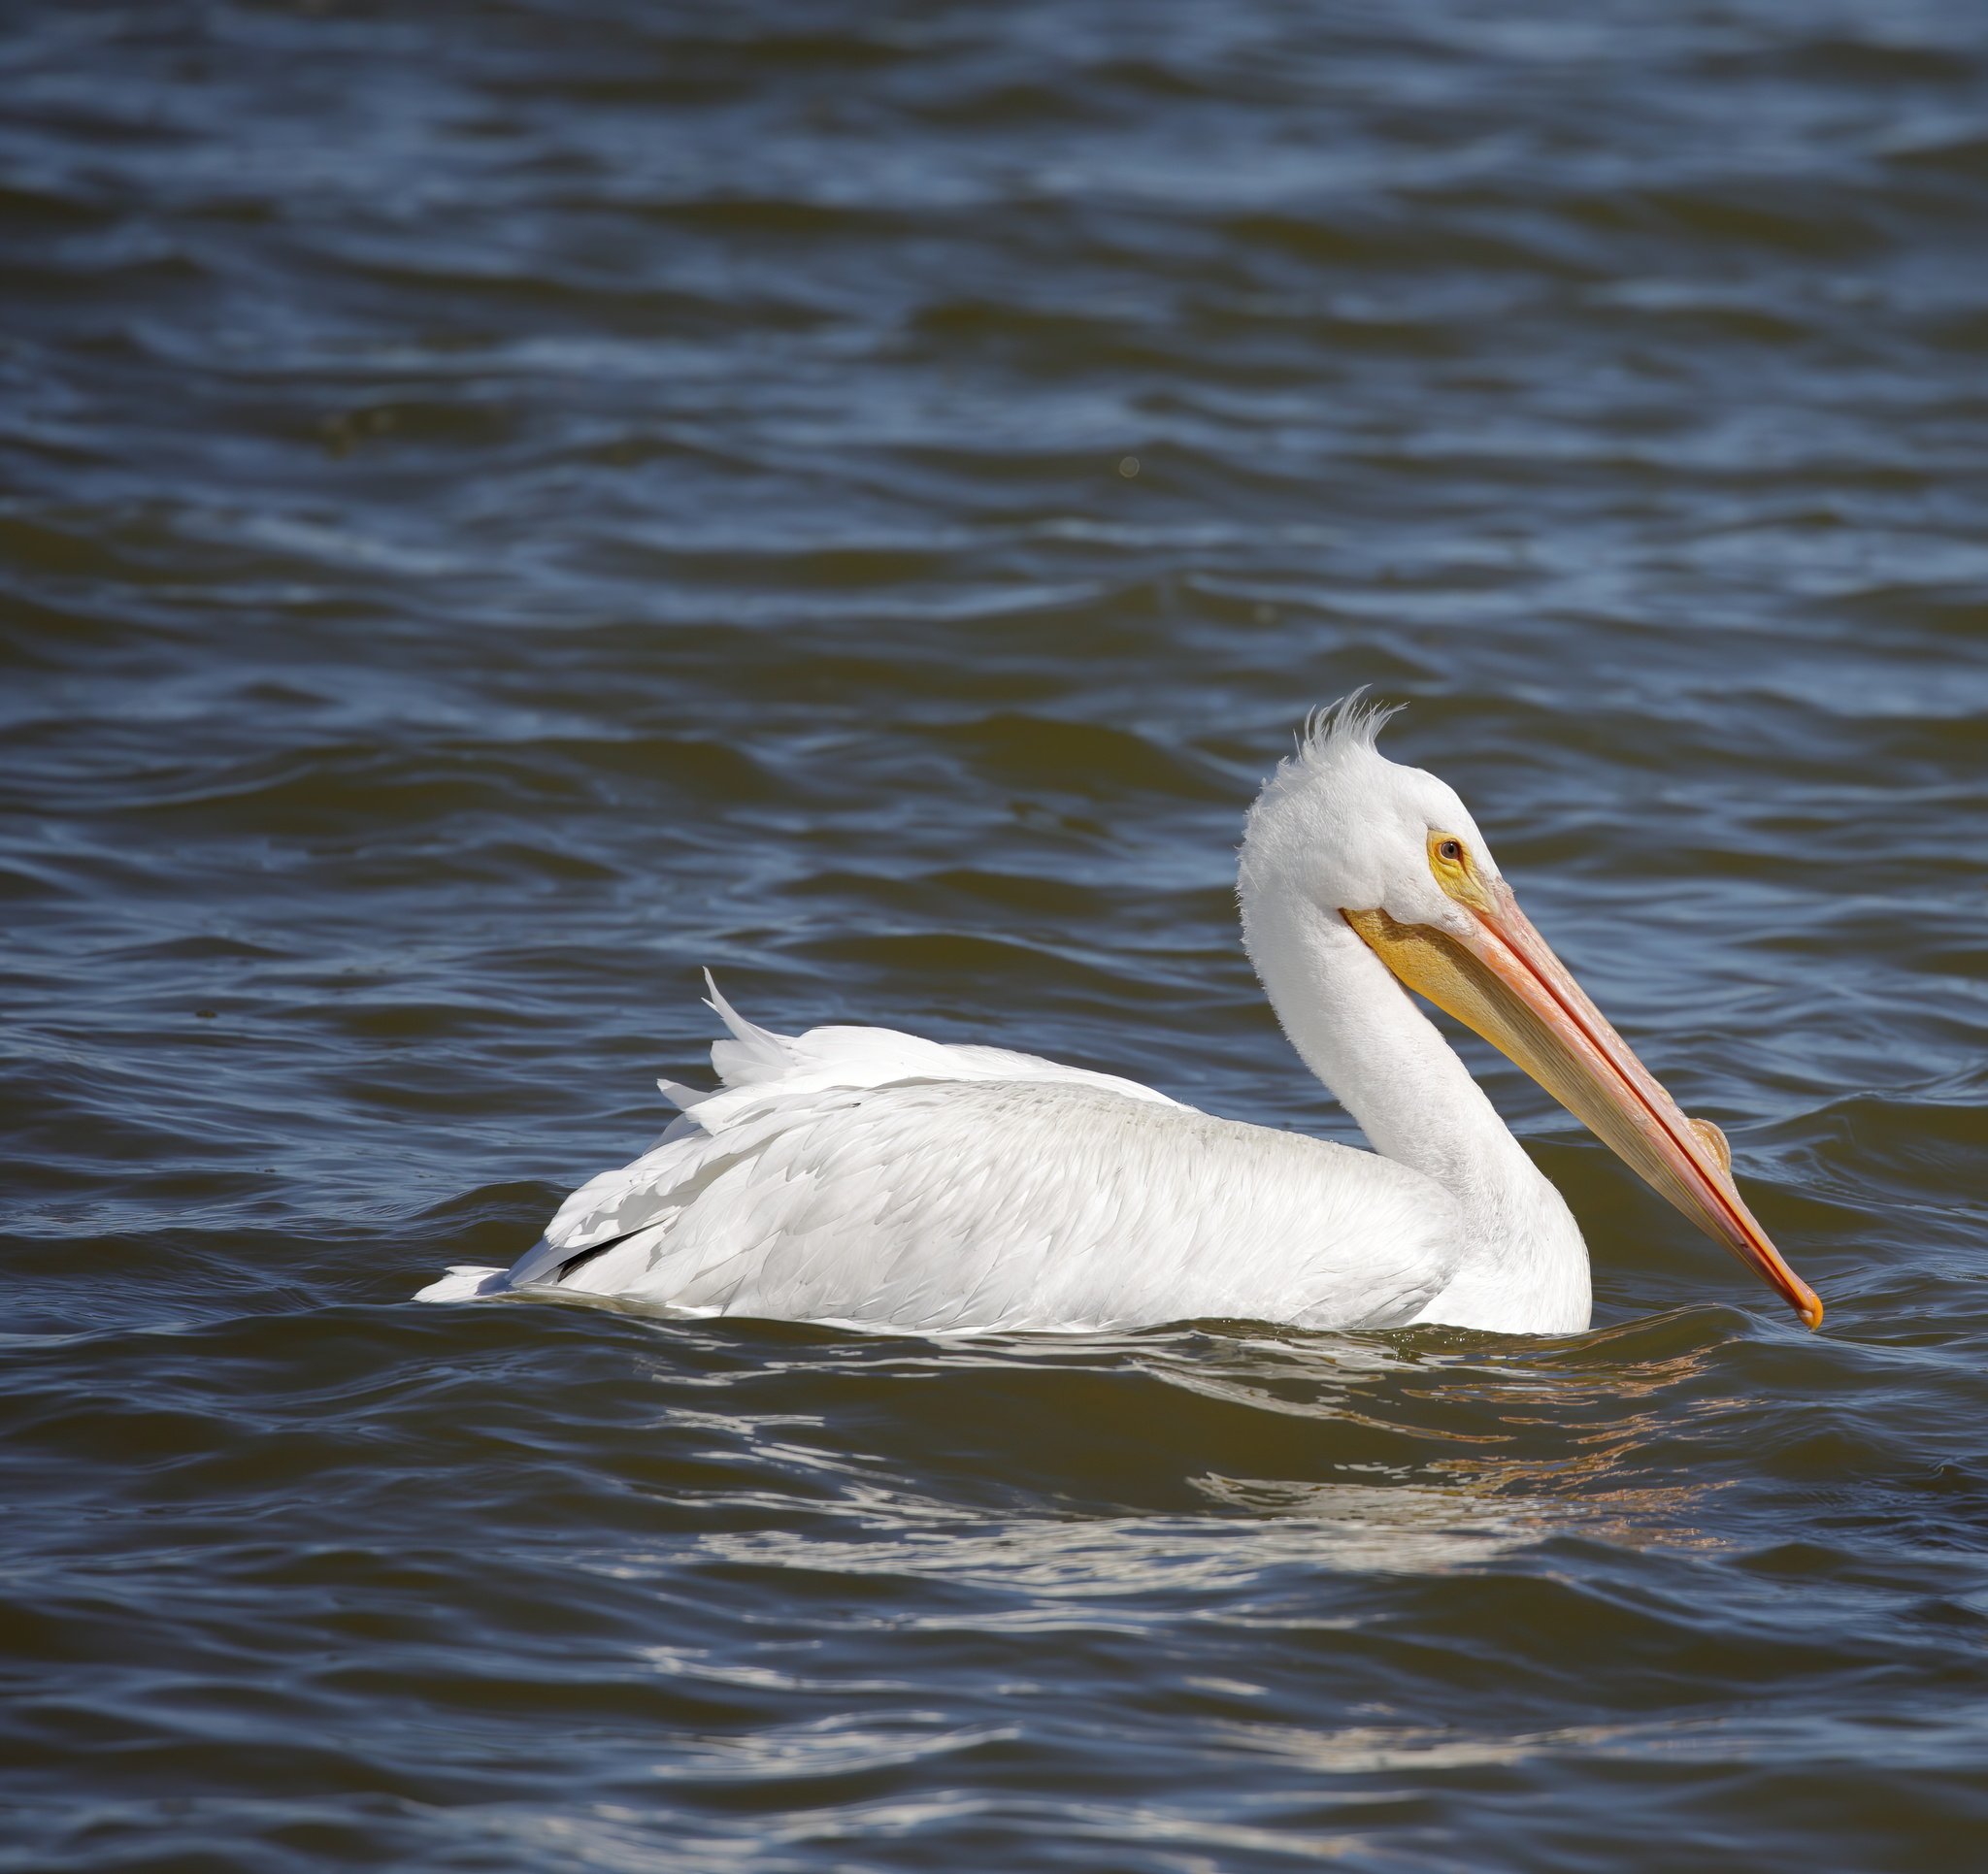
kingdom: Animalia
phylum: Chordata
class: Aves
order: Pelecaniformes
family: Pelecanidae
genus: Pelecanus
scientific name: Pelecanus erythrorhynchos
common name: American white pelican
